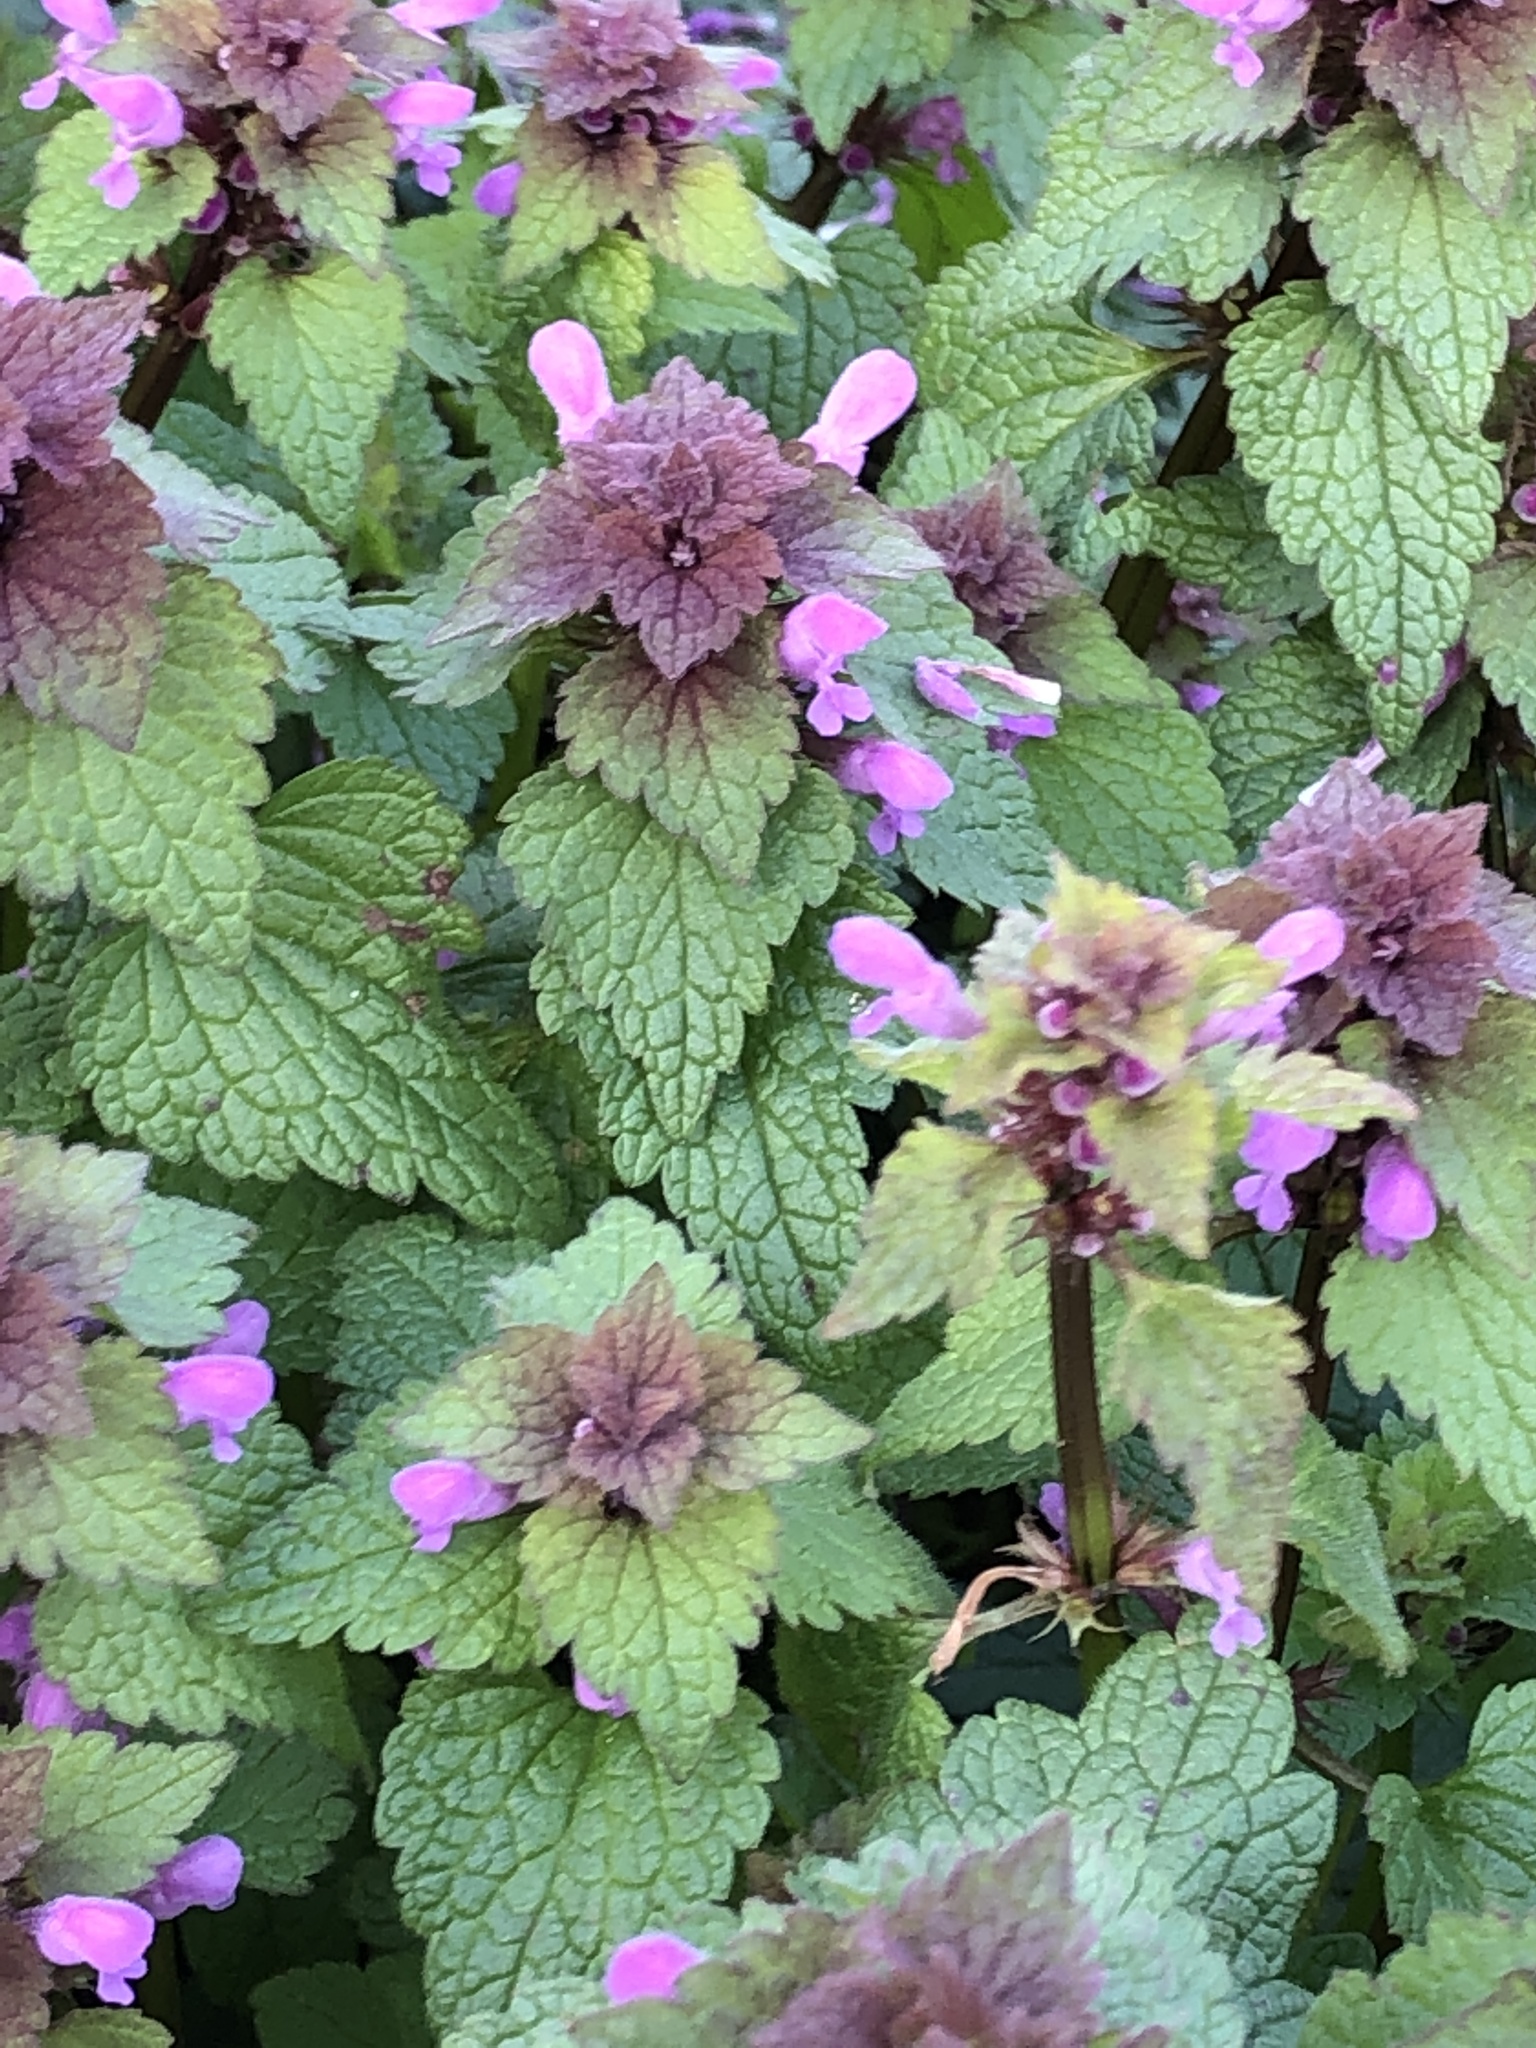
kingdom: Plantae
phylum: Tracheophyta
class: Magnoliopsida
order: Lamiales
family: Lamiaceae
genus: Lamium
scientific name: Lamium purpureum
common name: Red dead-nettle
